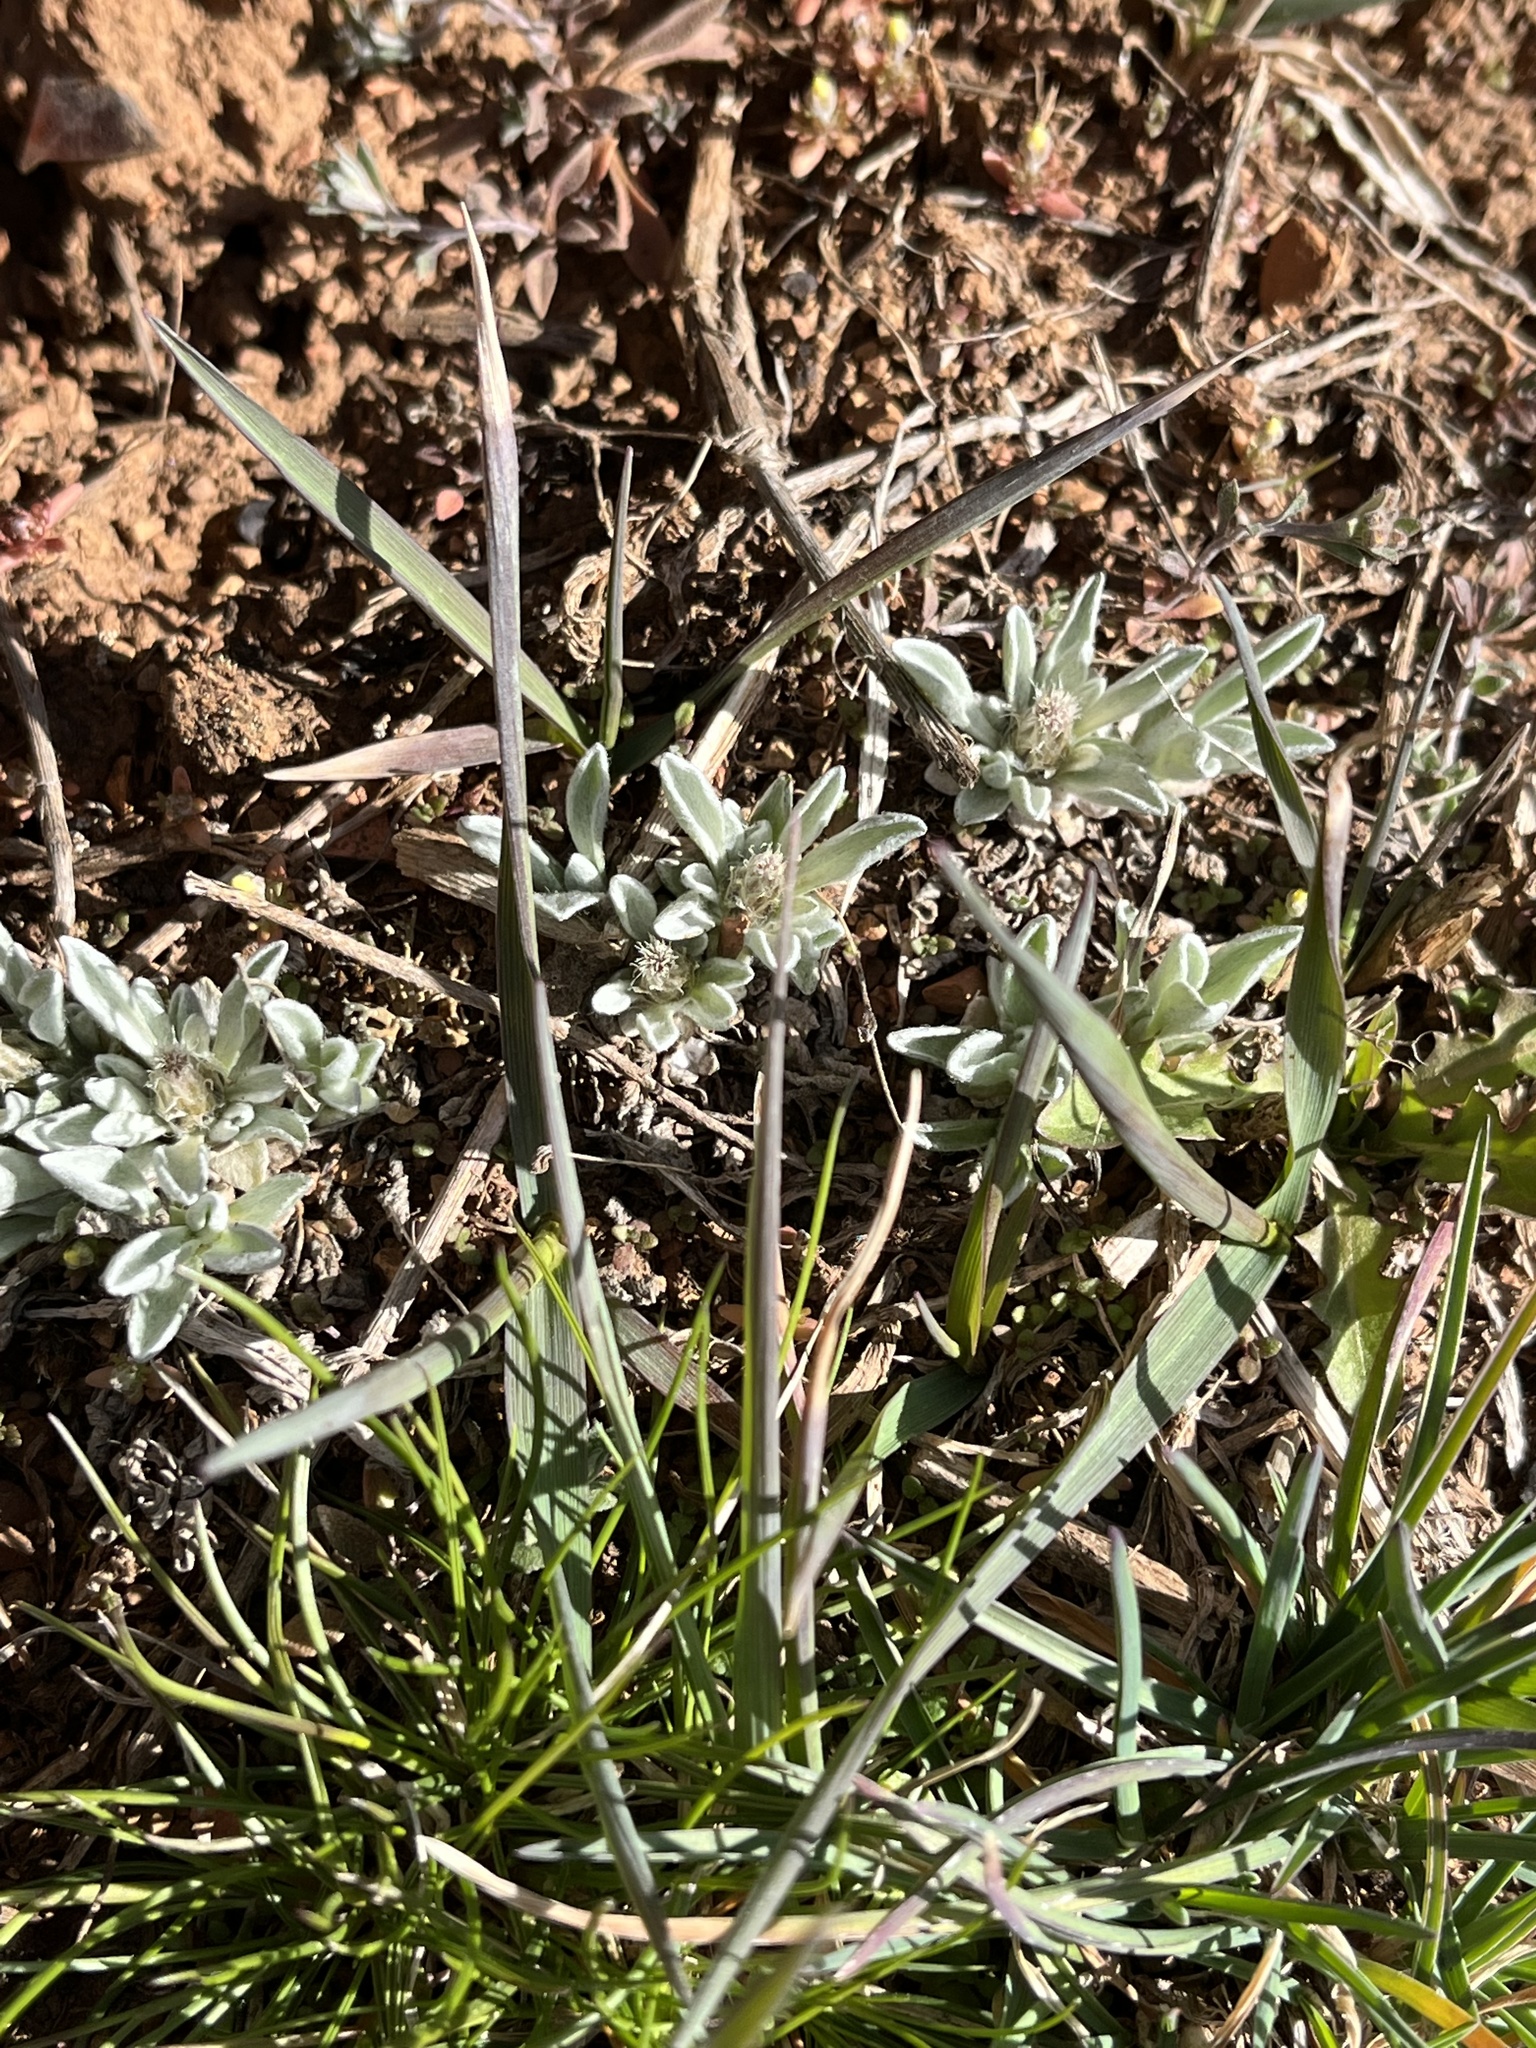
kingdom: Plantae
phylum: Tracheophyta
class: Magnoliopsida
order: Asterales
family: Asteraceae
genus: Antennaria
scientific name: Antennaria dimorpha
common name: Cushion pussytoes
